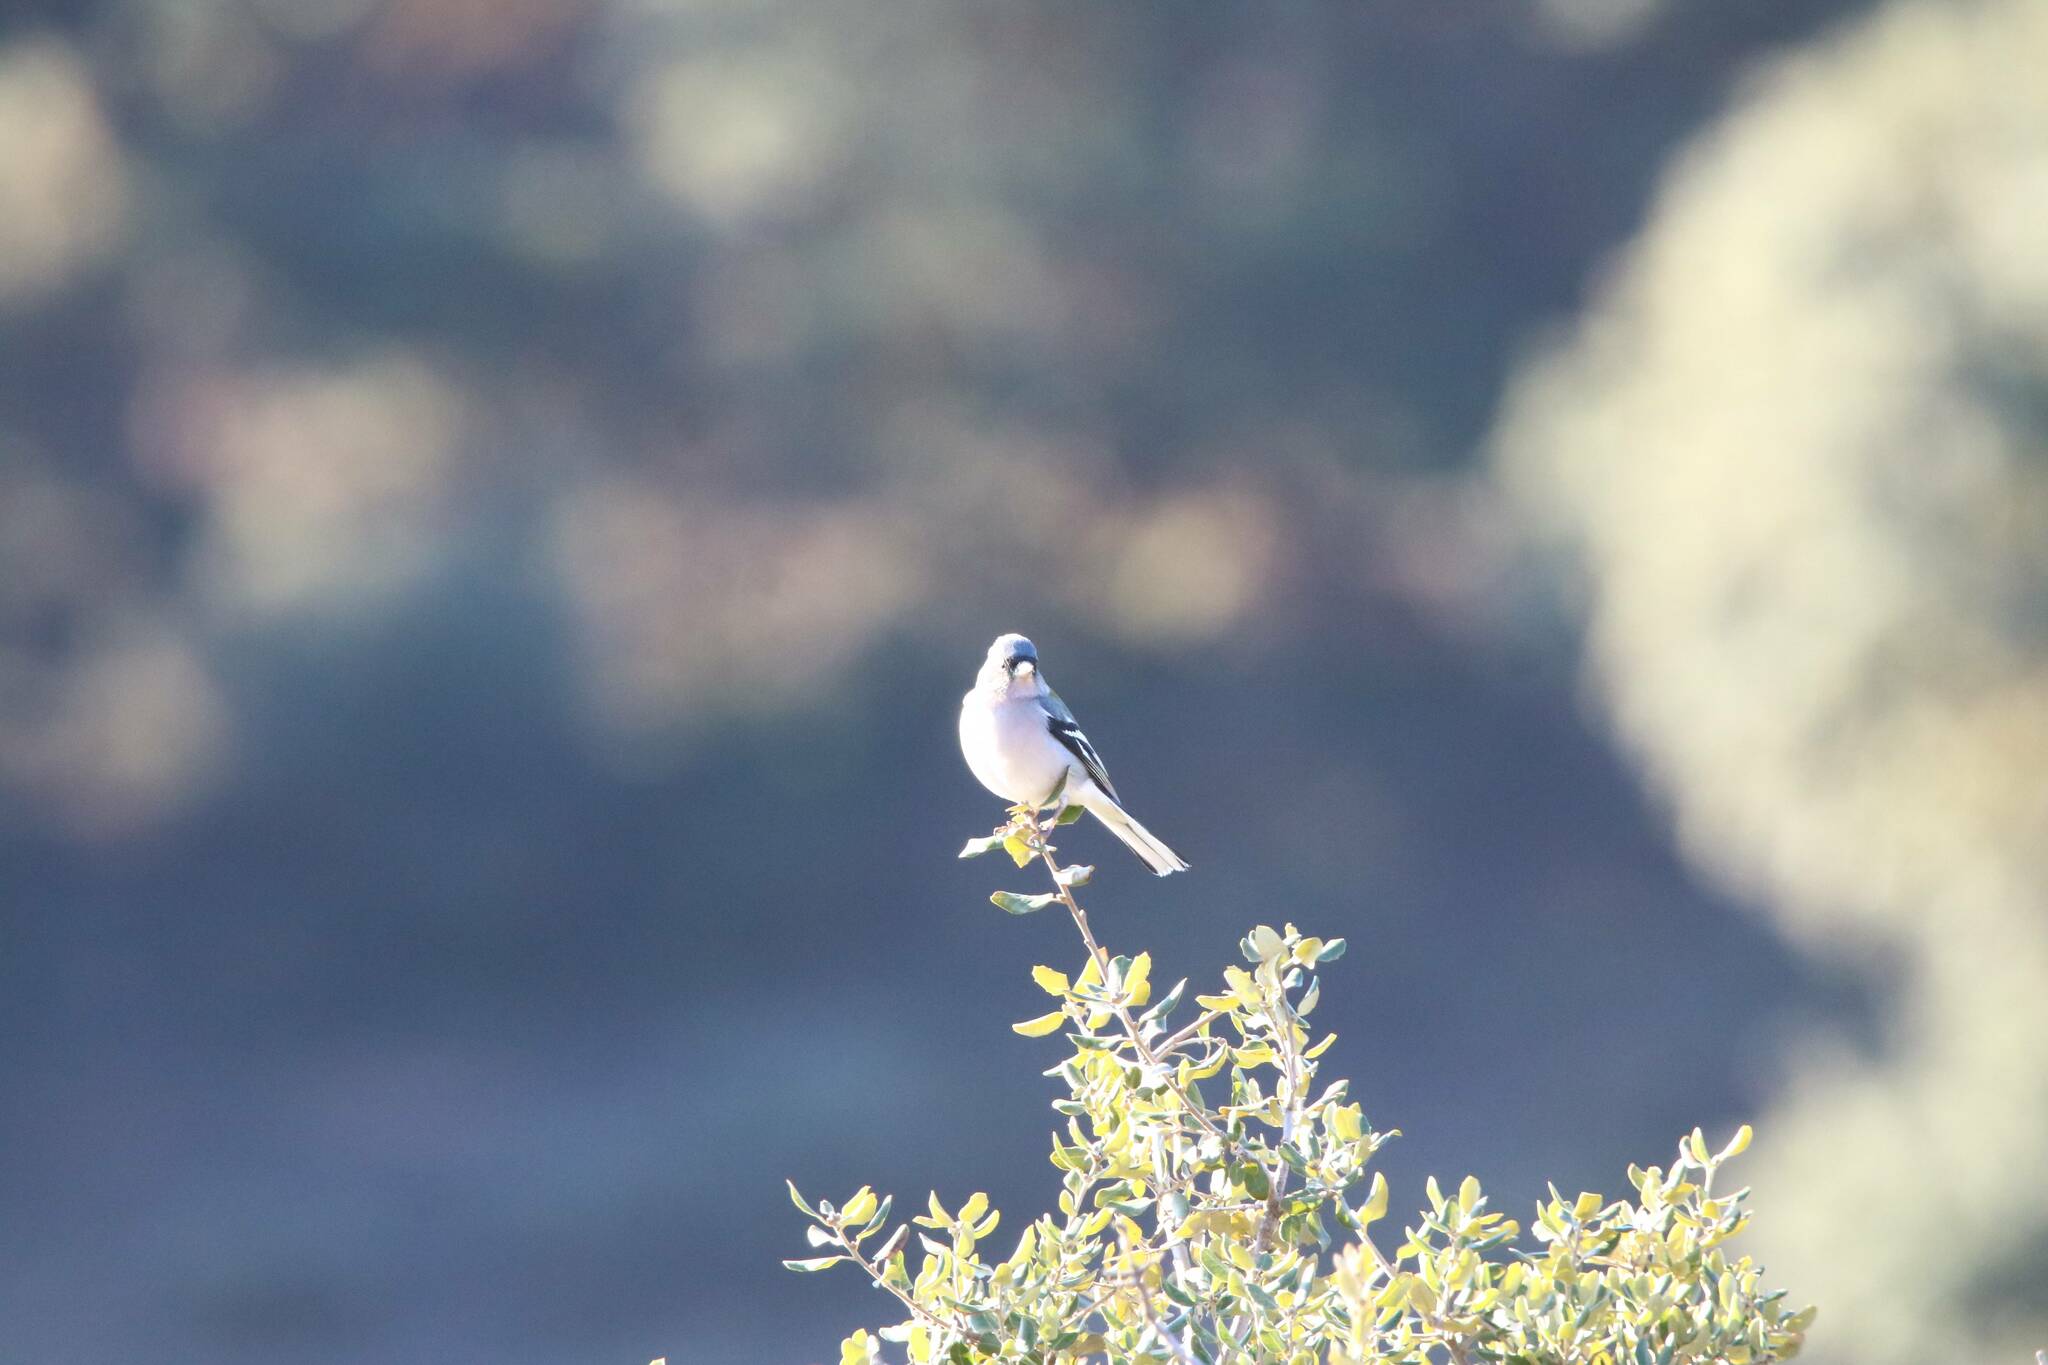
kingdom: Animalia
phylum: Chordata
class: Aves
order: Passeriformes
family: Fringillidae
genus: Fringilla
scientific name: Fringilla spodiogenys
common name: African chaffinch
